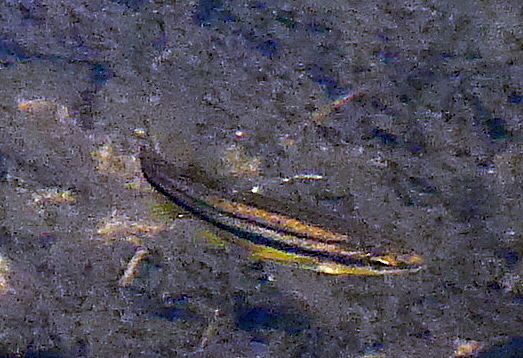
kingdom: Animalia
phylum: Chordata
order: Cypriniformes
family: Cyprinidae
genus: Chrosomus
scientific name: Chrosomus eos
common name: Northern redbelly dace
